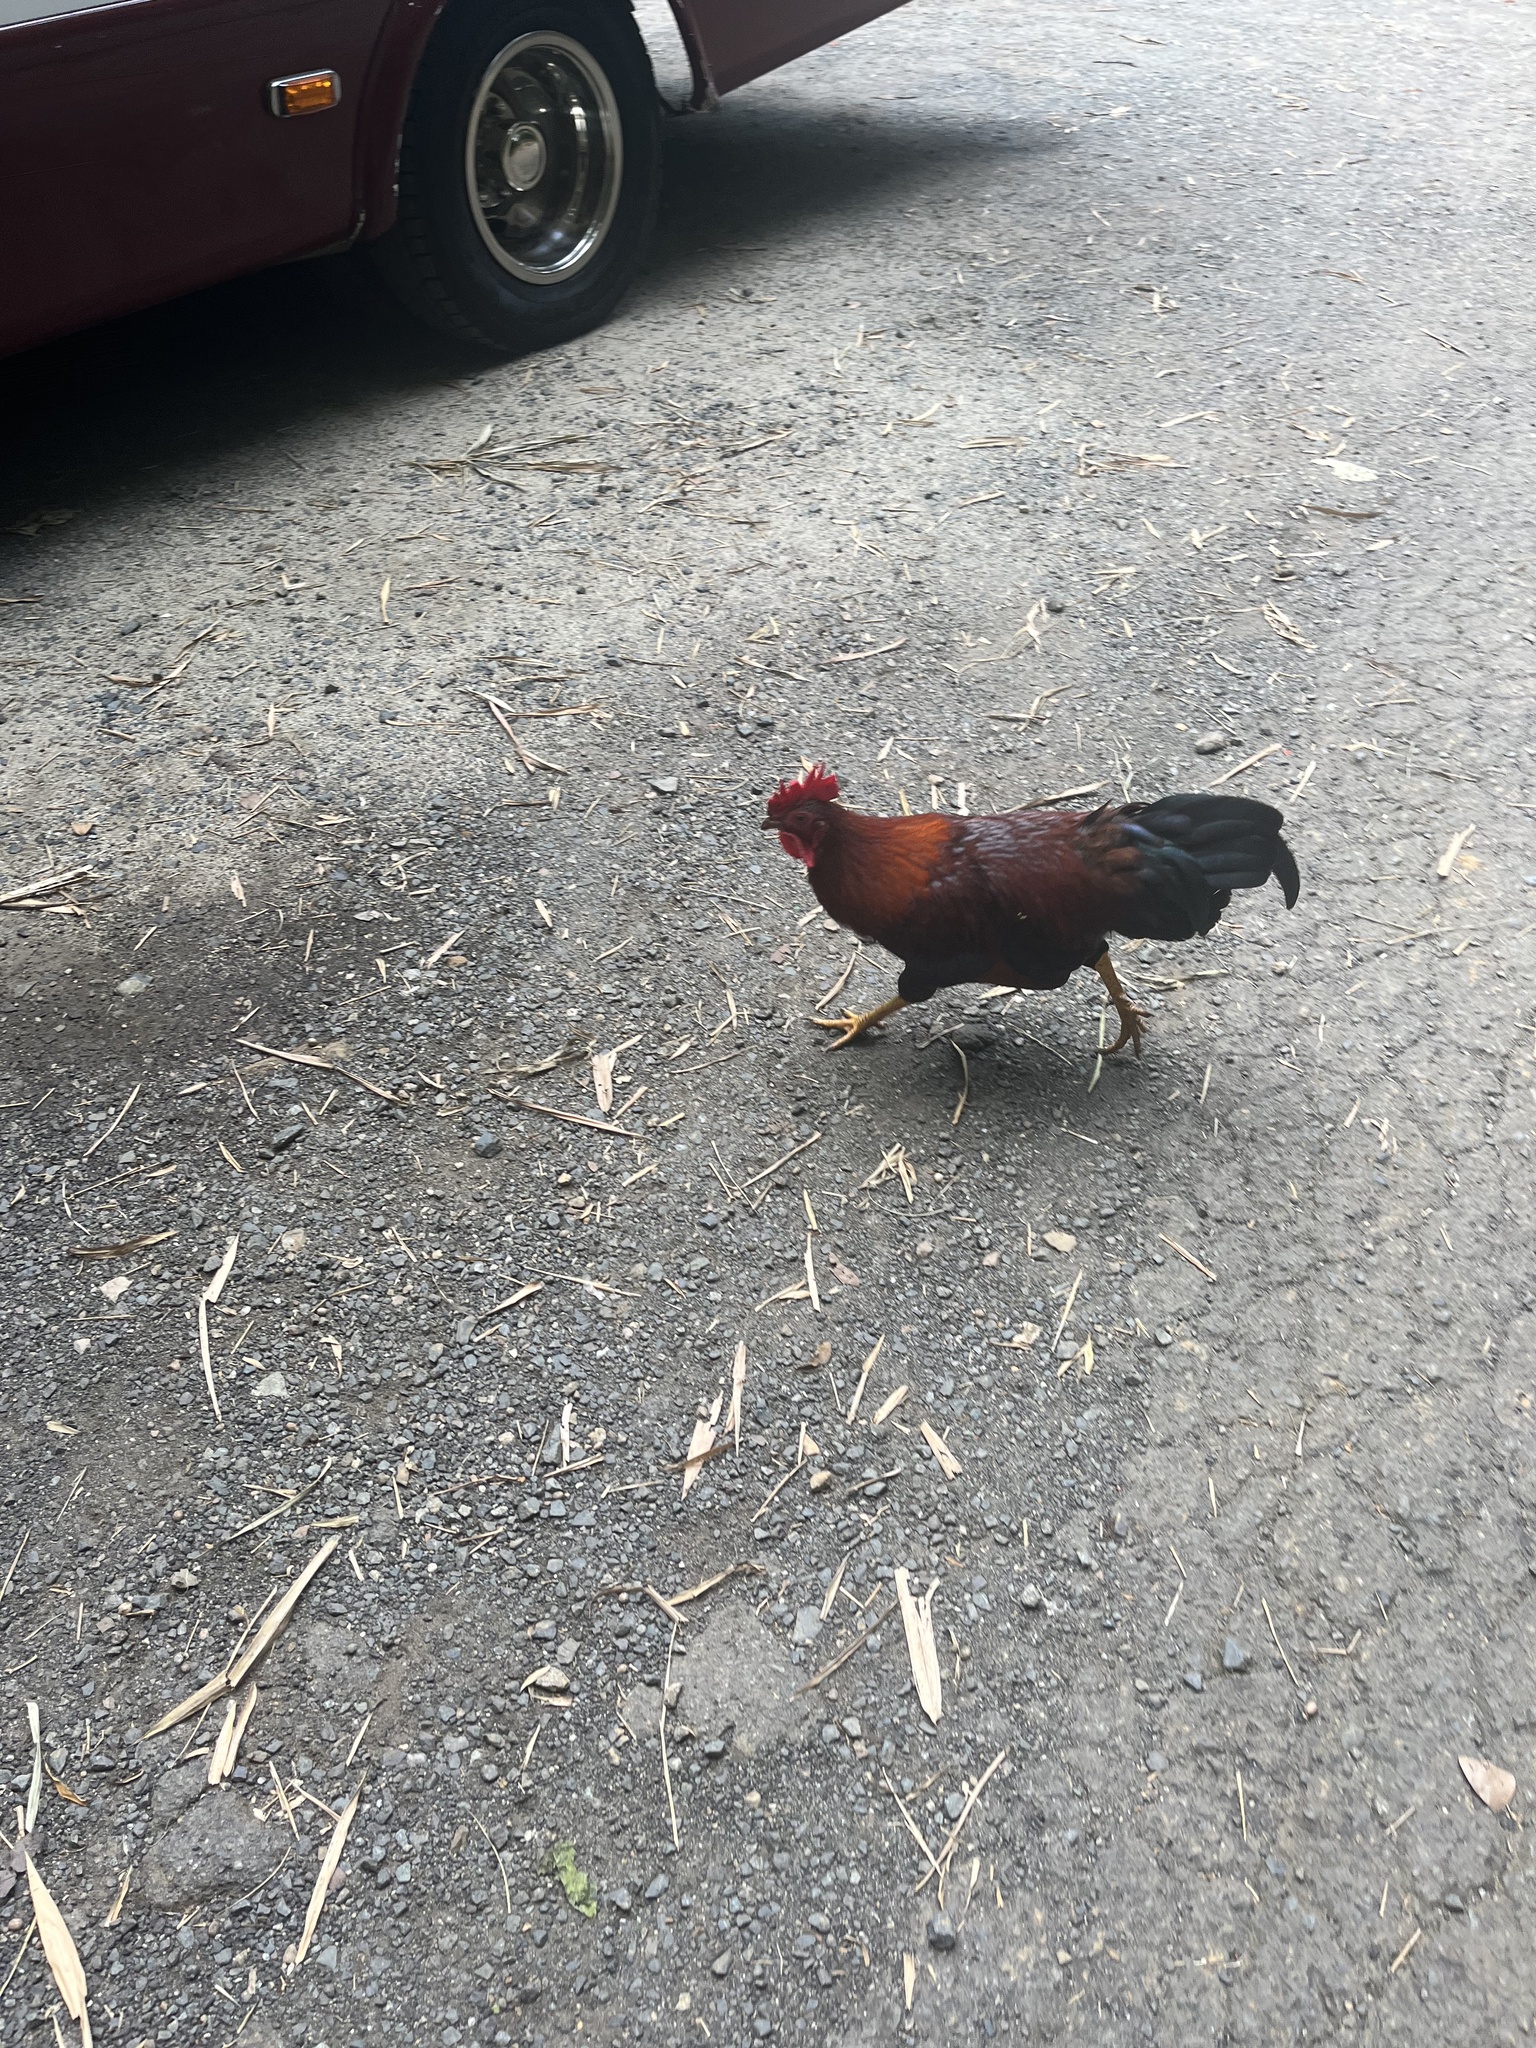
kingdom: Animalia
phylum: Chordata
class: Aves
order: Galliformes
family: Phasianidae
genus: Gallus
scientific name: Gallus gallus
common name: Red junglefowl
